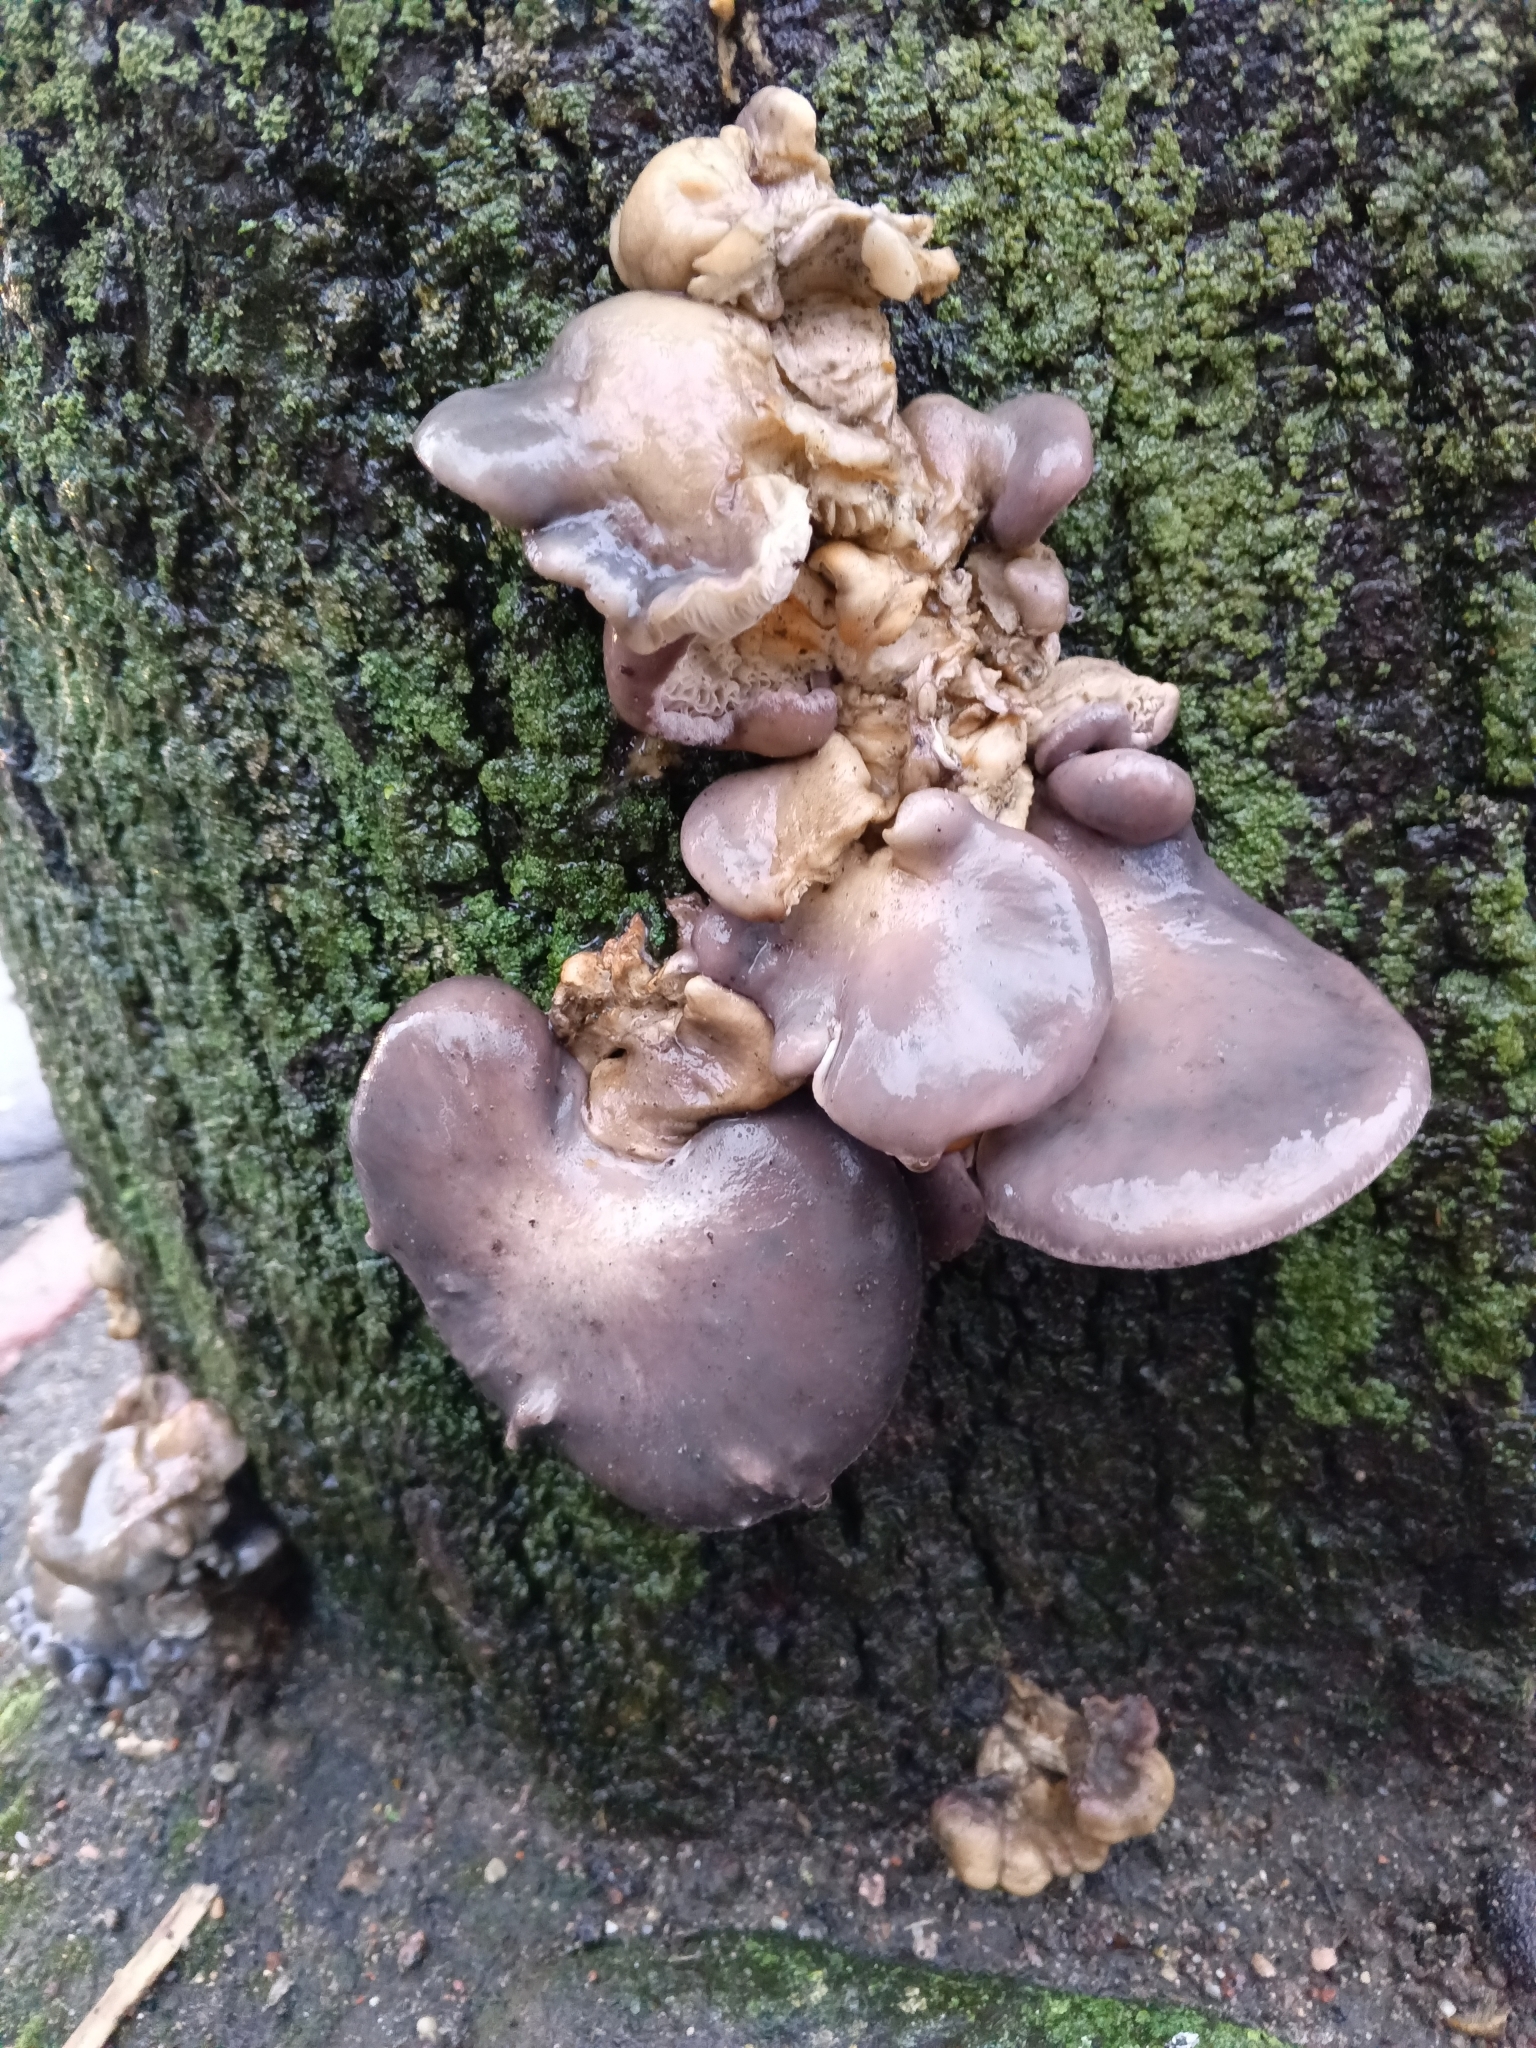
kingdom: Fungi
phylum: Basidiomycota
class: Agaricomycetes
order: Agaricales
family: Sarcomyxaceae
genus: Sarcomyxa
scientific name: Sarcomyxa serotina
